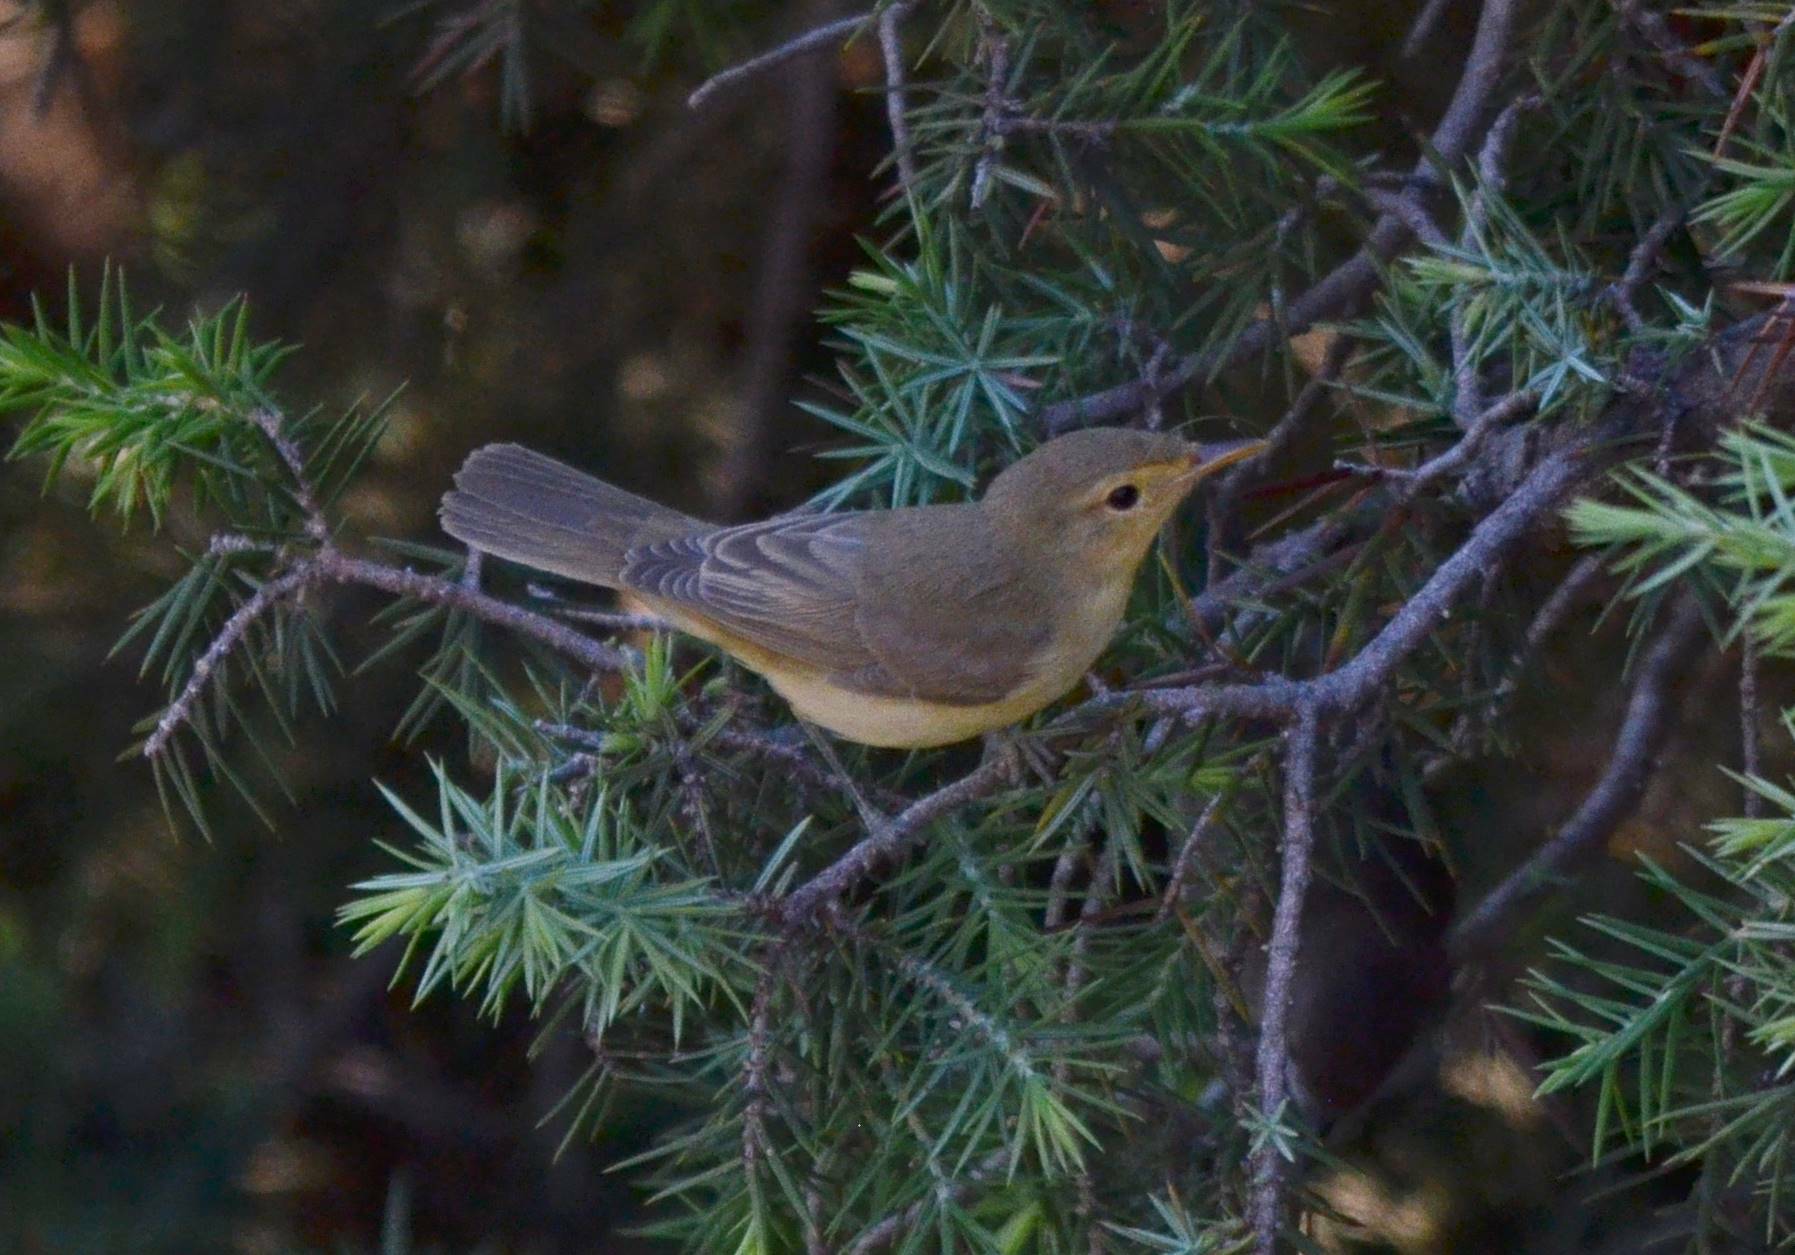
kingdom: Animalia
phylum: Chordata
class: Aves
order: Passeriformes
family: Acrocephalidae
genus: Hippolais
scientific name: Hippolais polyglotta
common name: Melodious warbler
